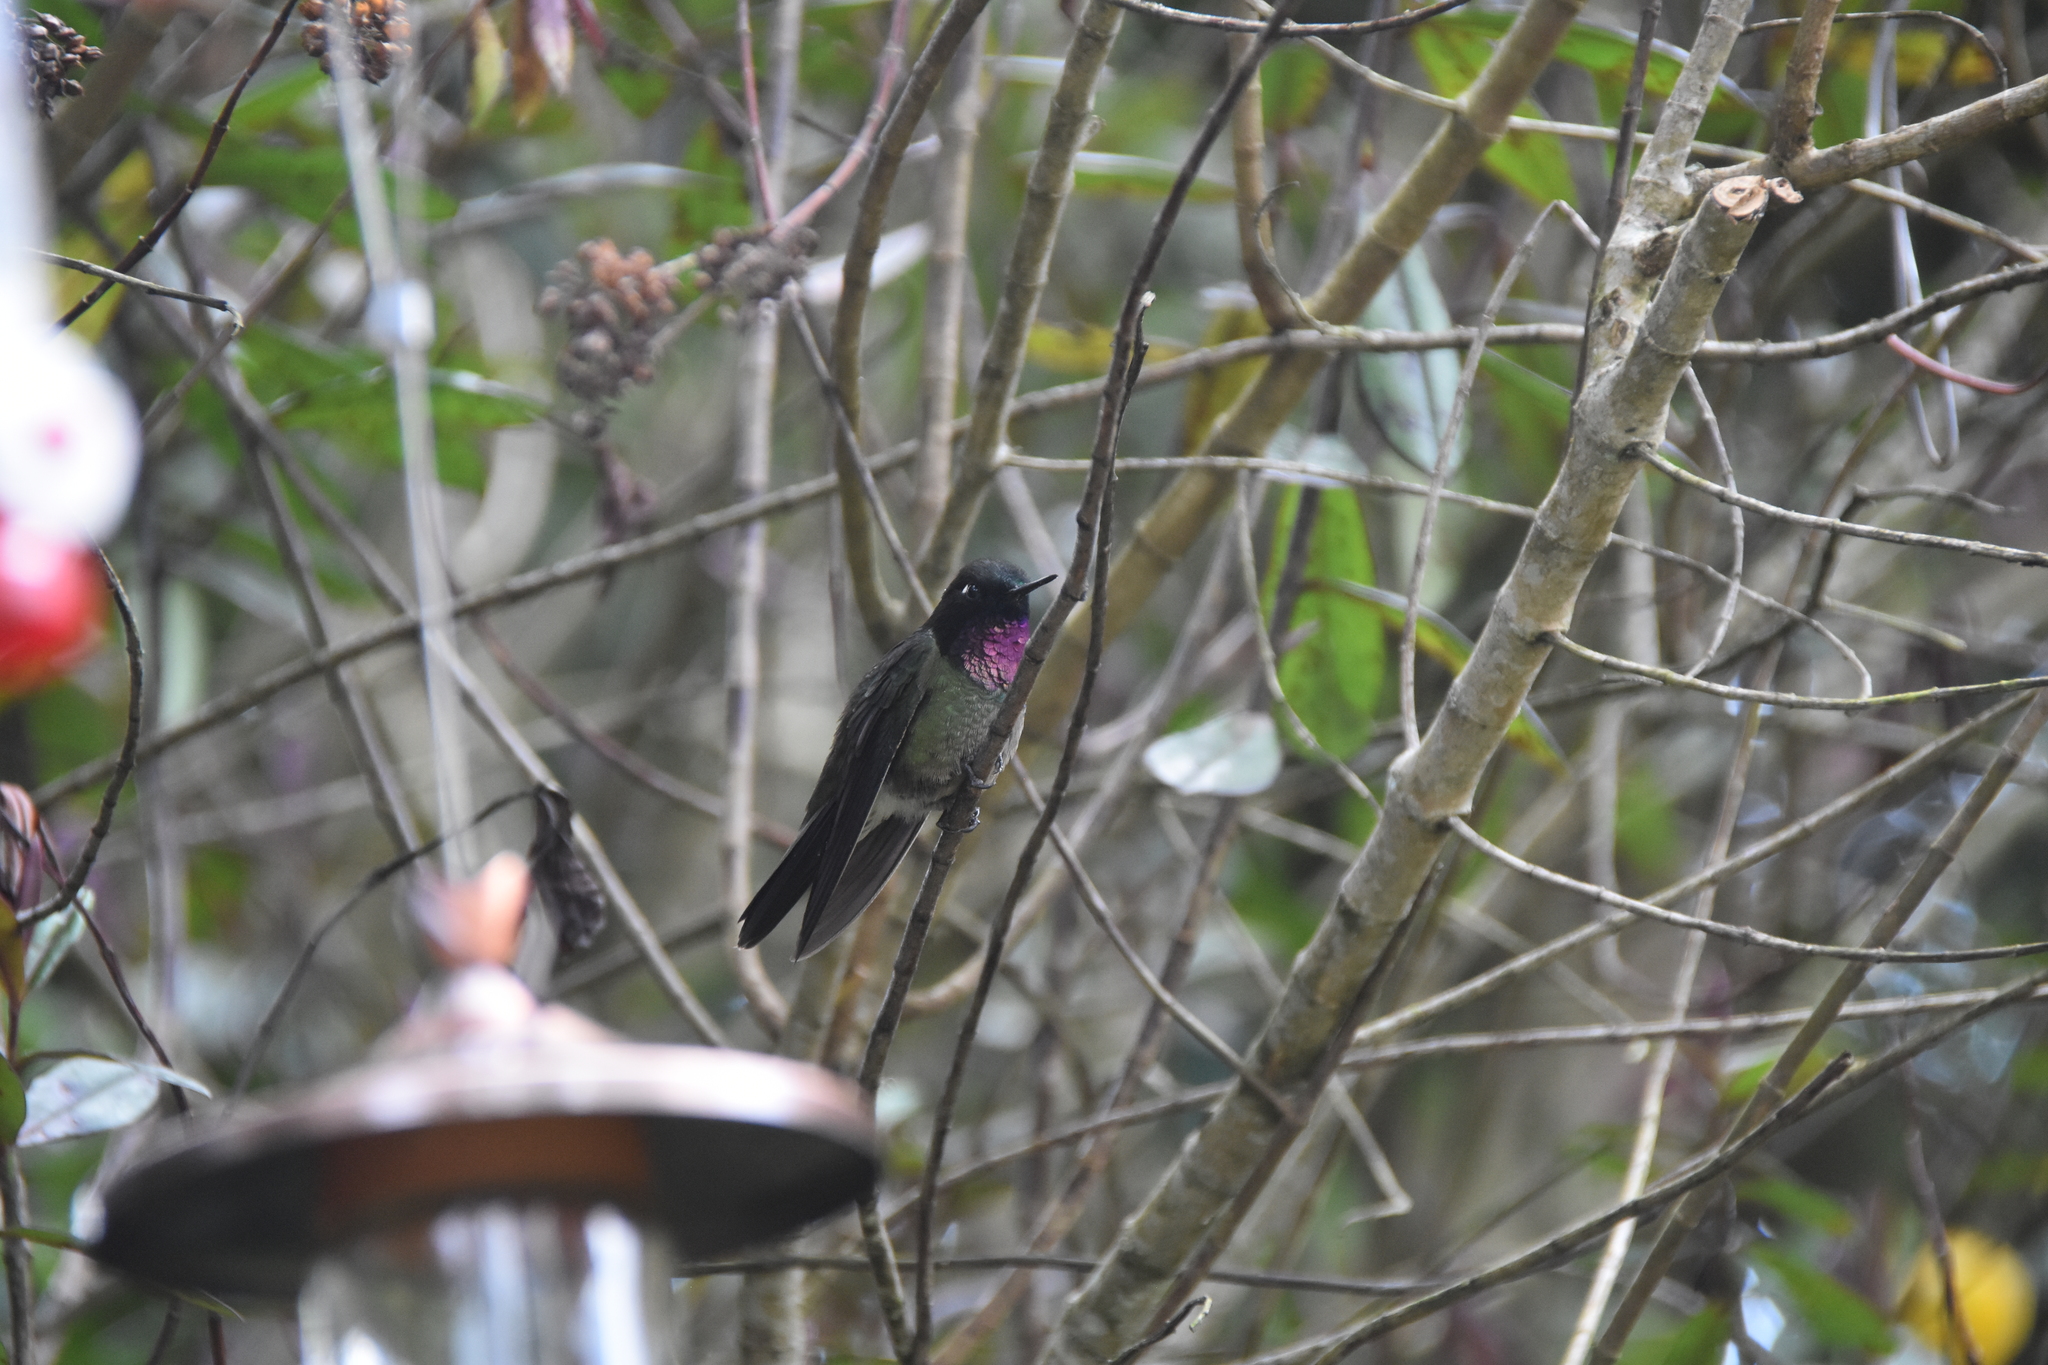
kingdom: Animalia
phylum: Chordata
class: Aves
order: Apodiformes
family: Trochilidae
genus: Heliangelus
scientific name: Heliangelus clarisse
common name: Longuemare's sunangel
